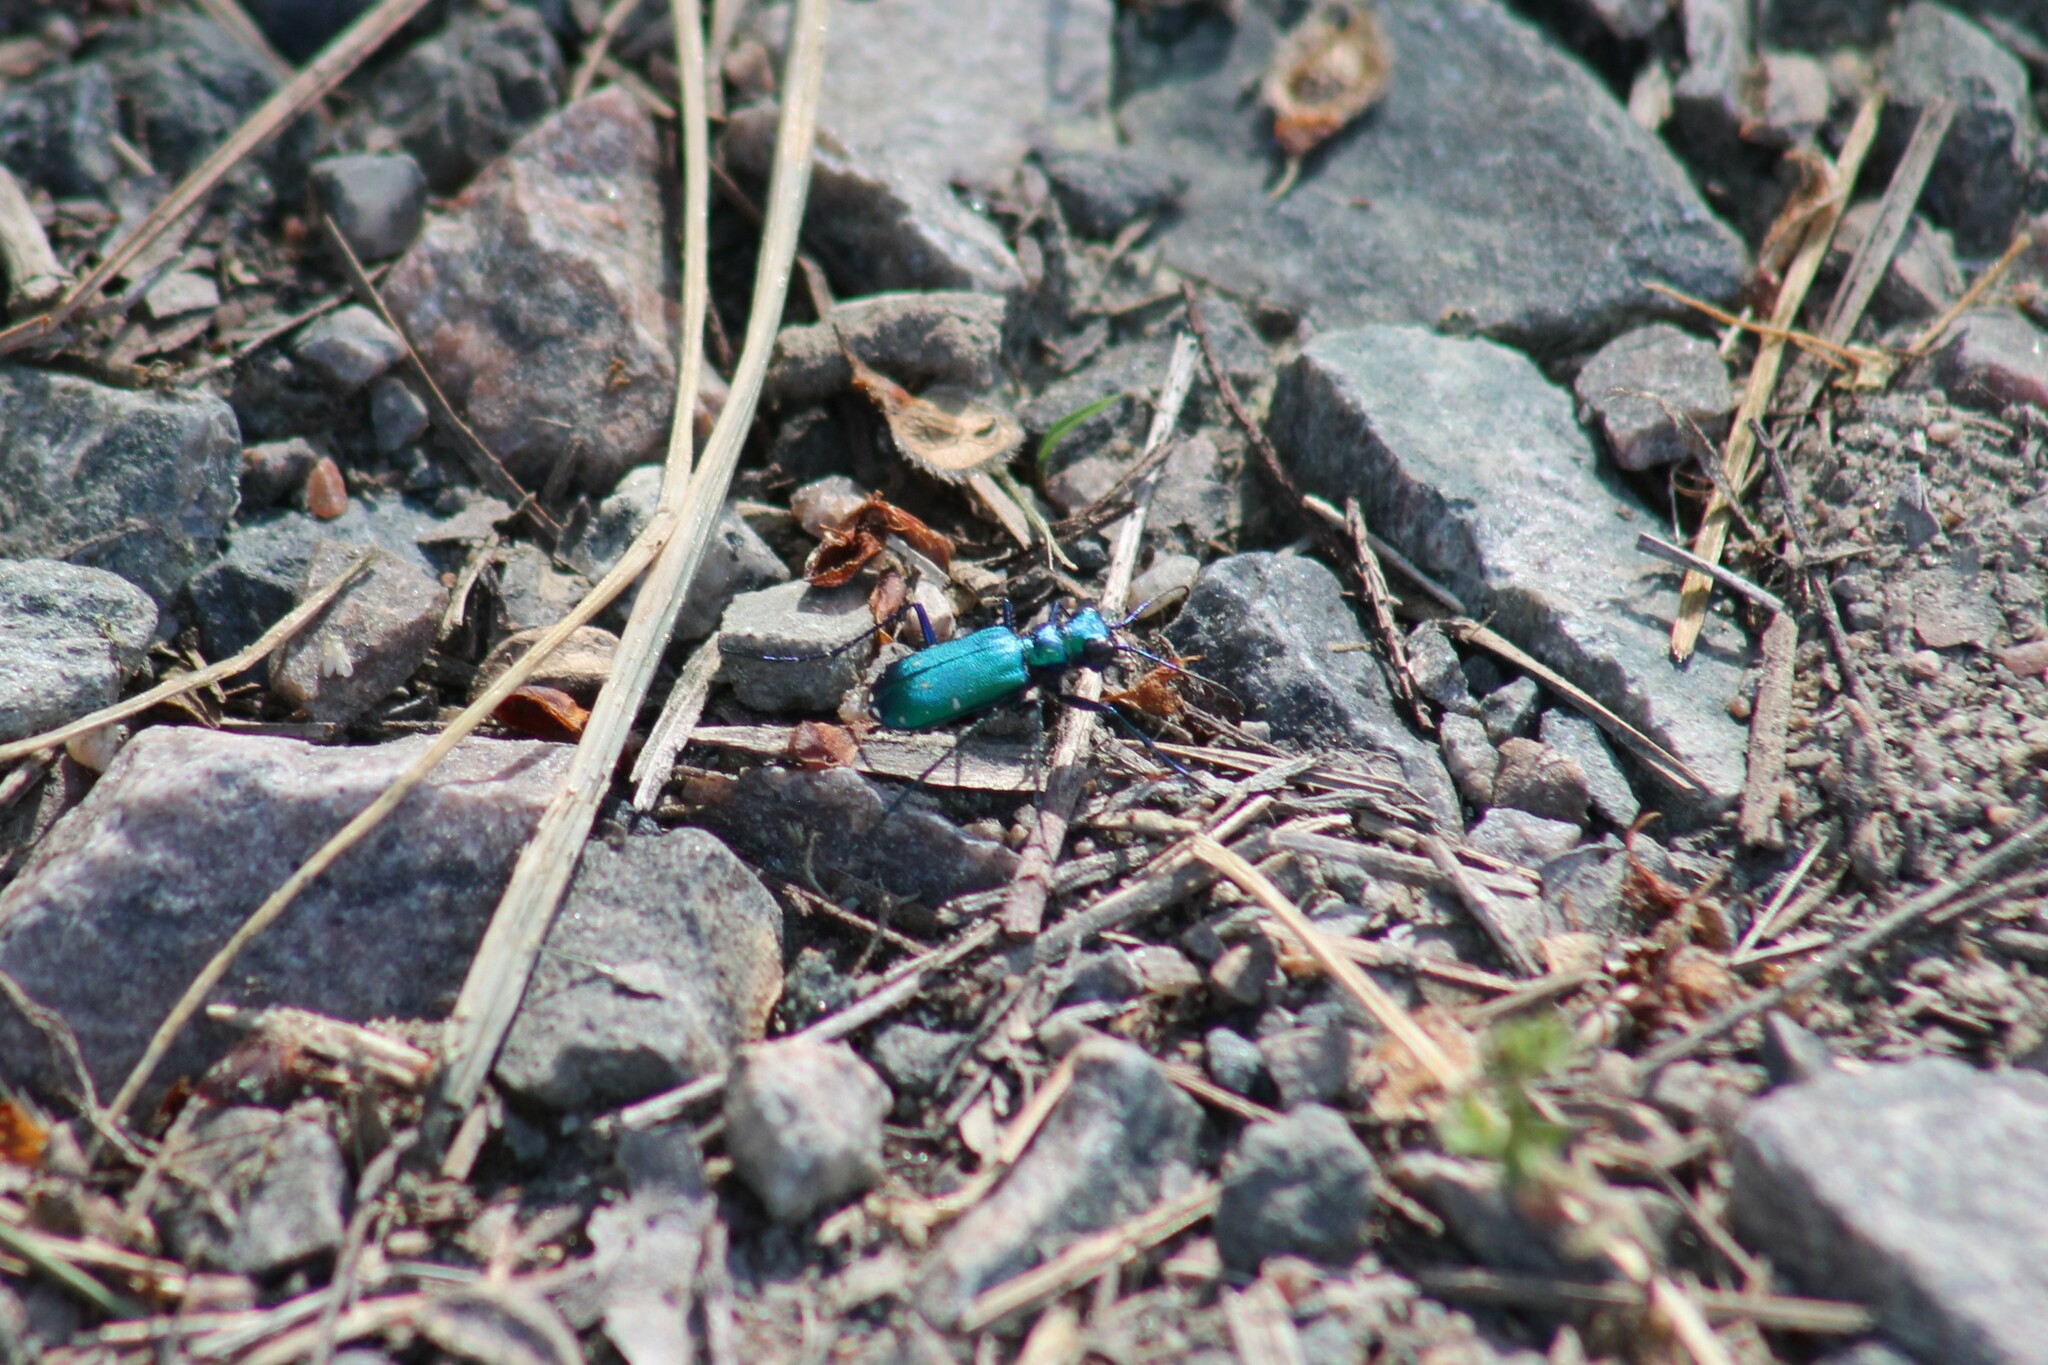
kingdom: Animalia
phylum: Arthropoda
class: Insecta
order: Coleoptera
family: Carabidae
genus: Cicindela
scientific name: Cicindela sexguttata
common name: Six-spotted tiger beetle
